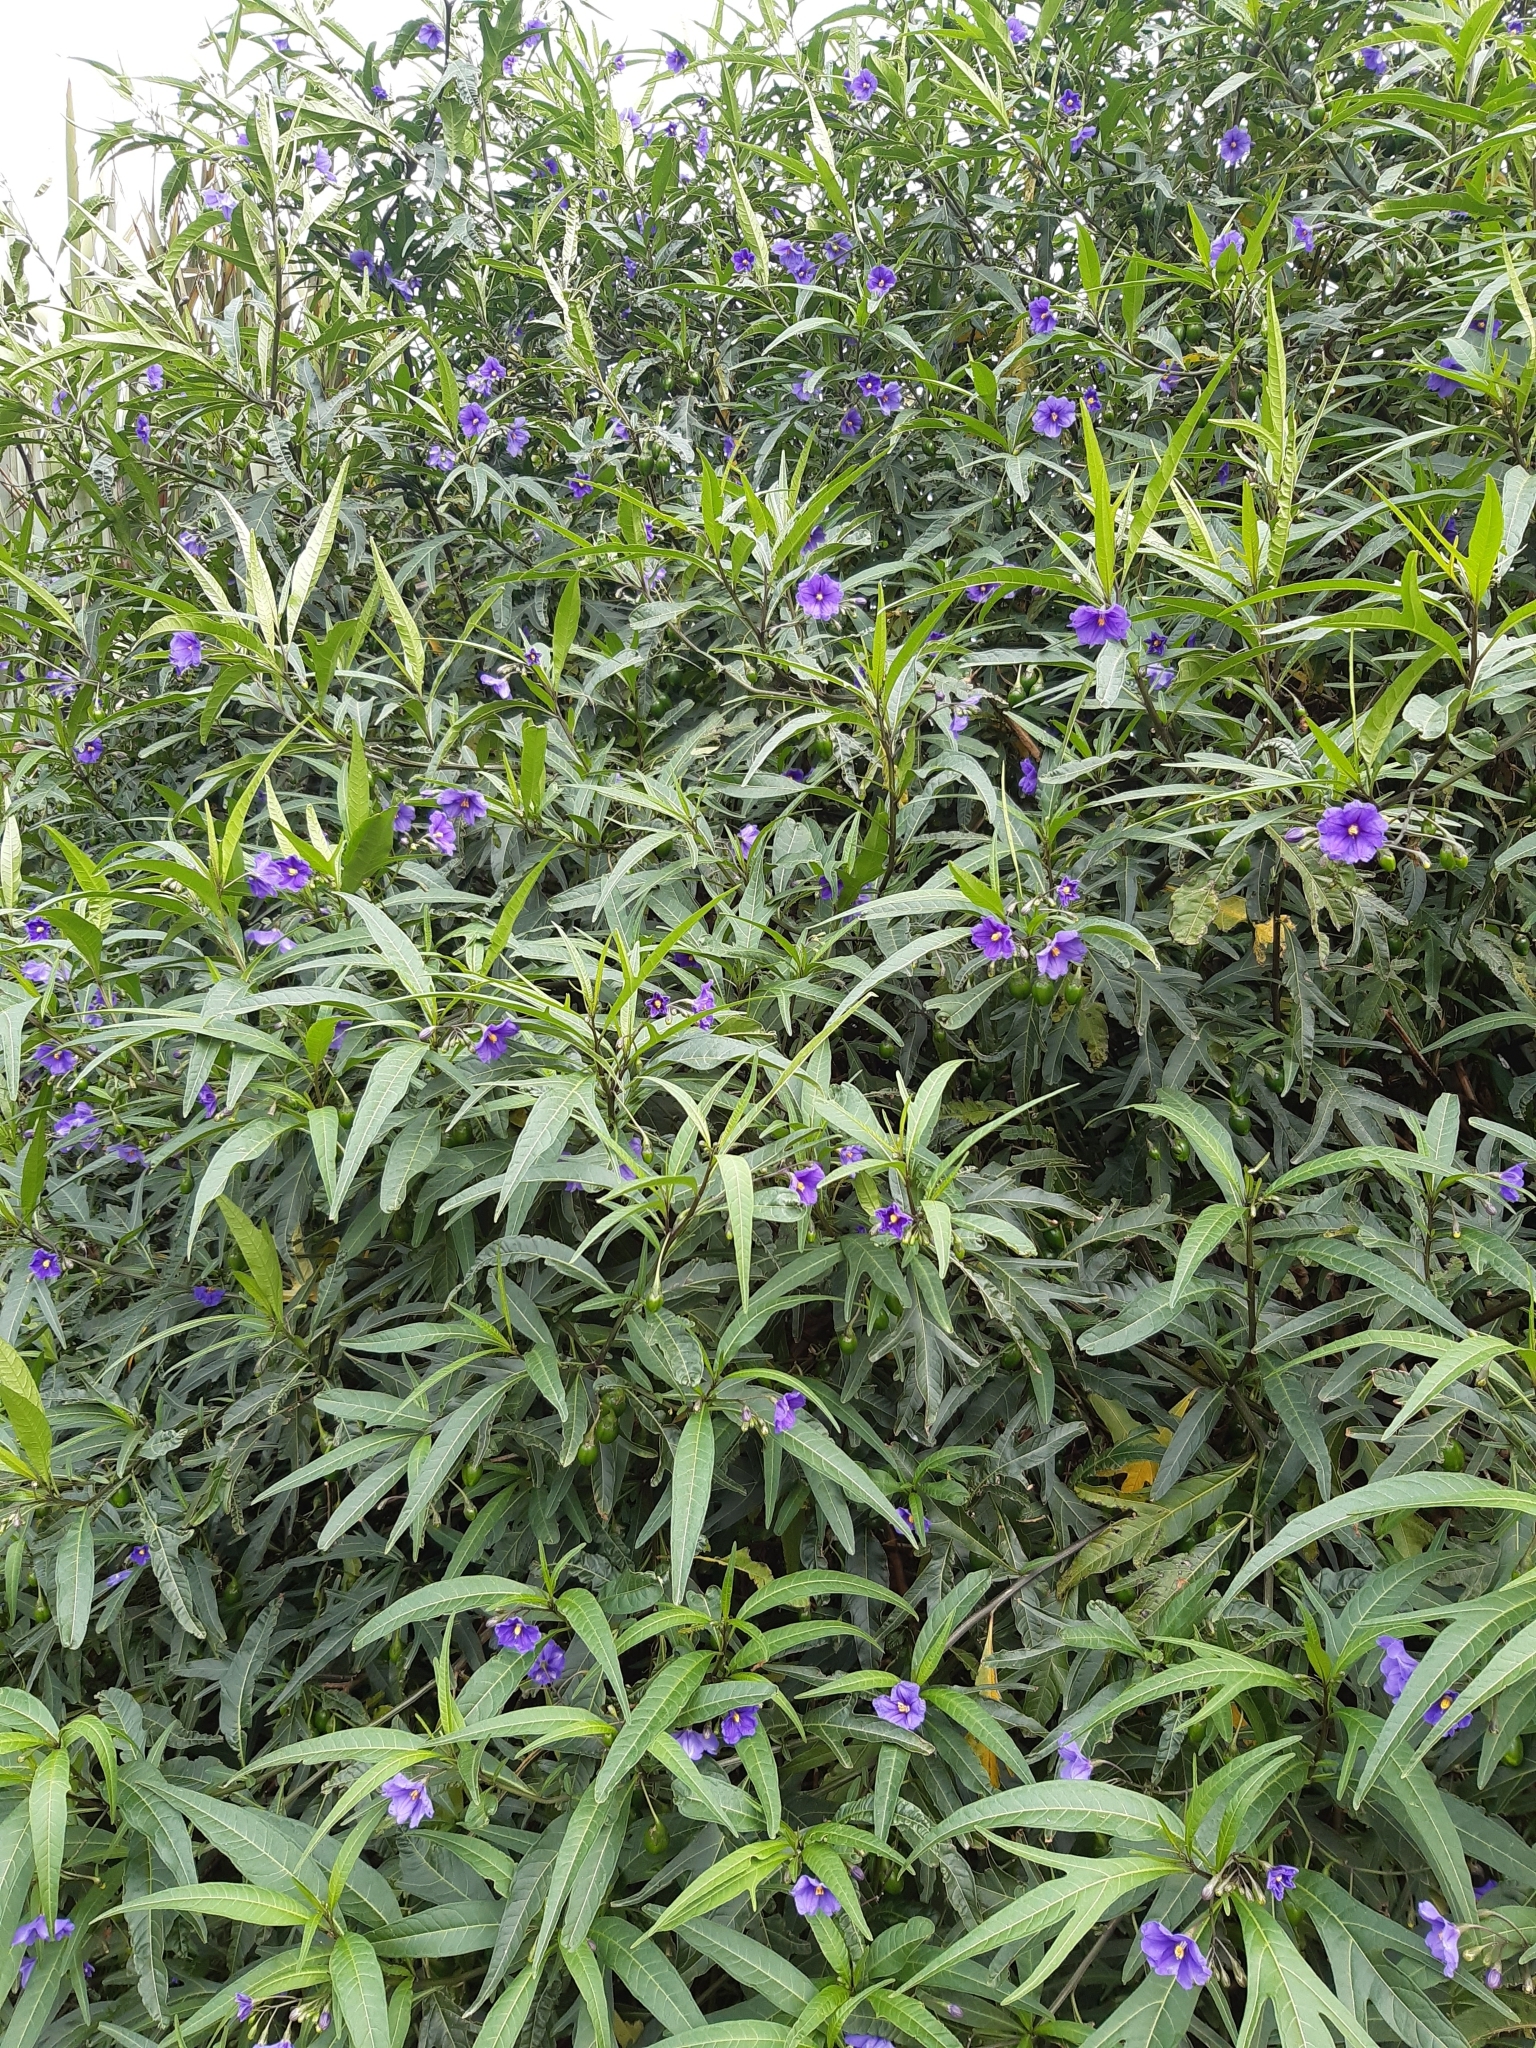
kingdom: Plantae
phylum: Tracheophyta
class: Magnoliopsida
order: Solanales
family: Solanaceae
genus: Solanum
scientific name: Solanum laciniatum
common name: Kangaroo-apple
